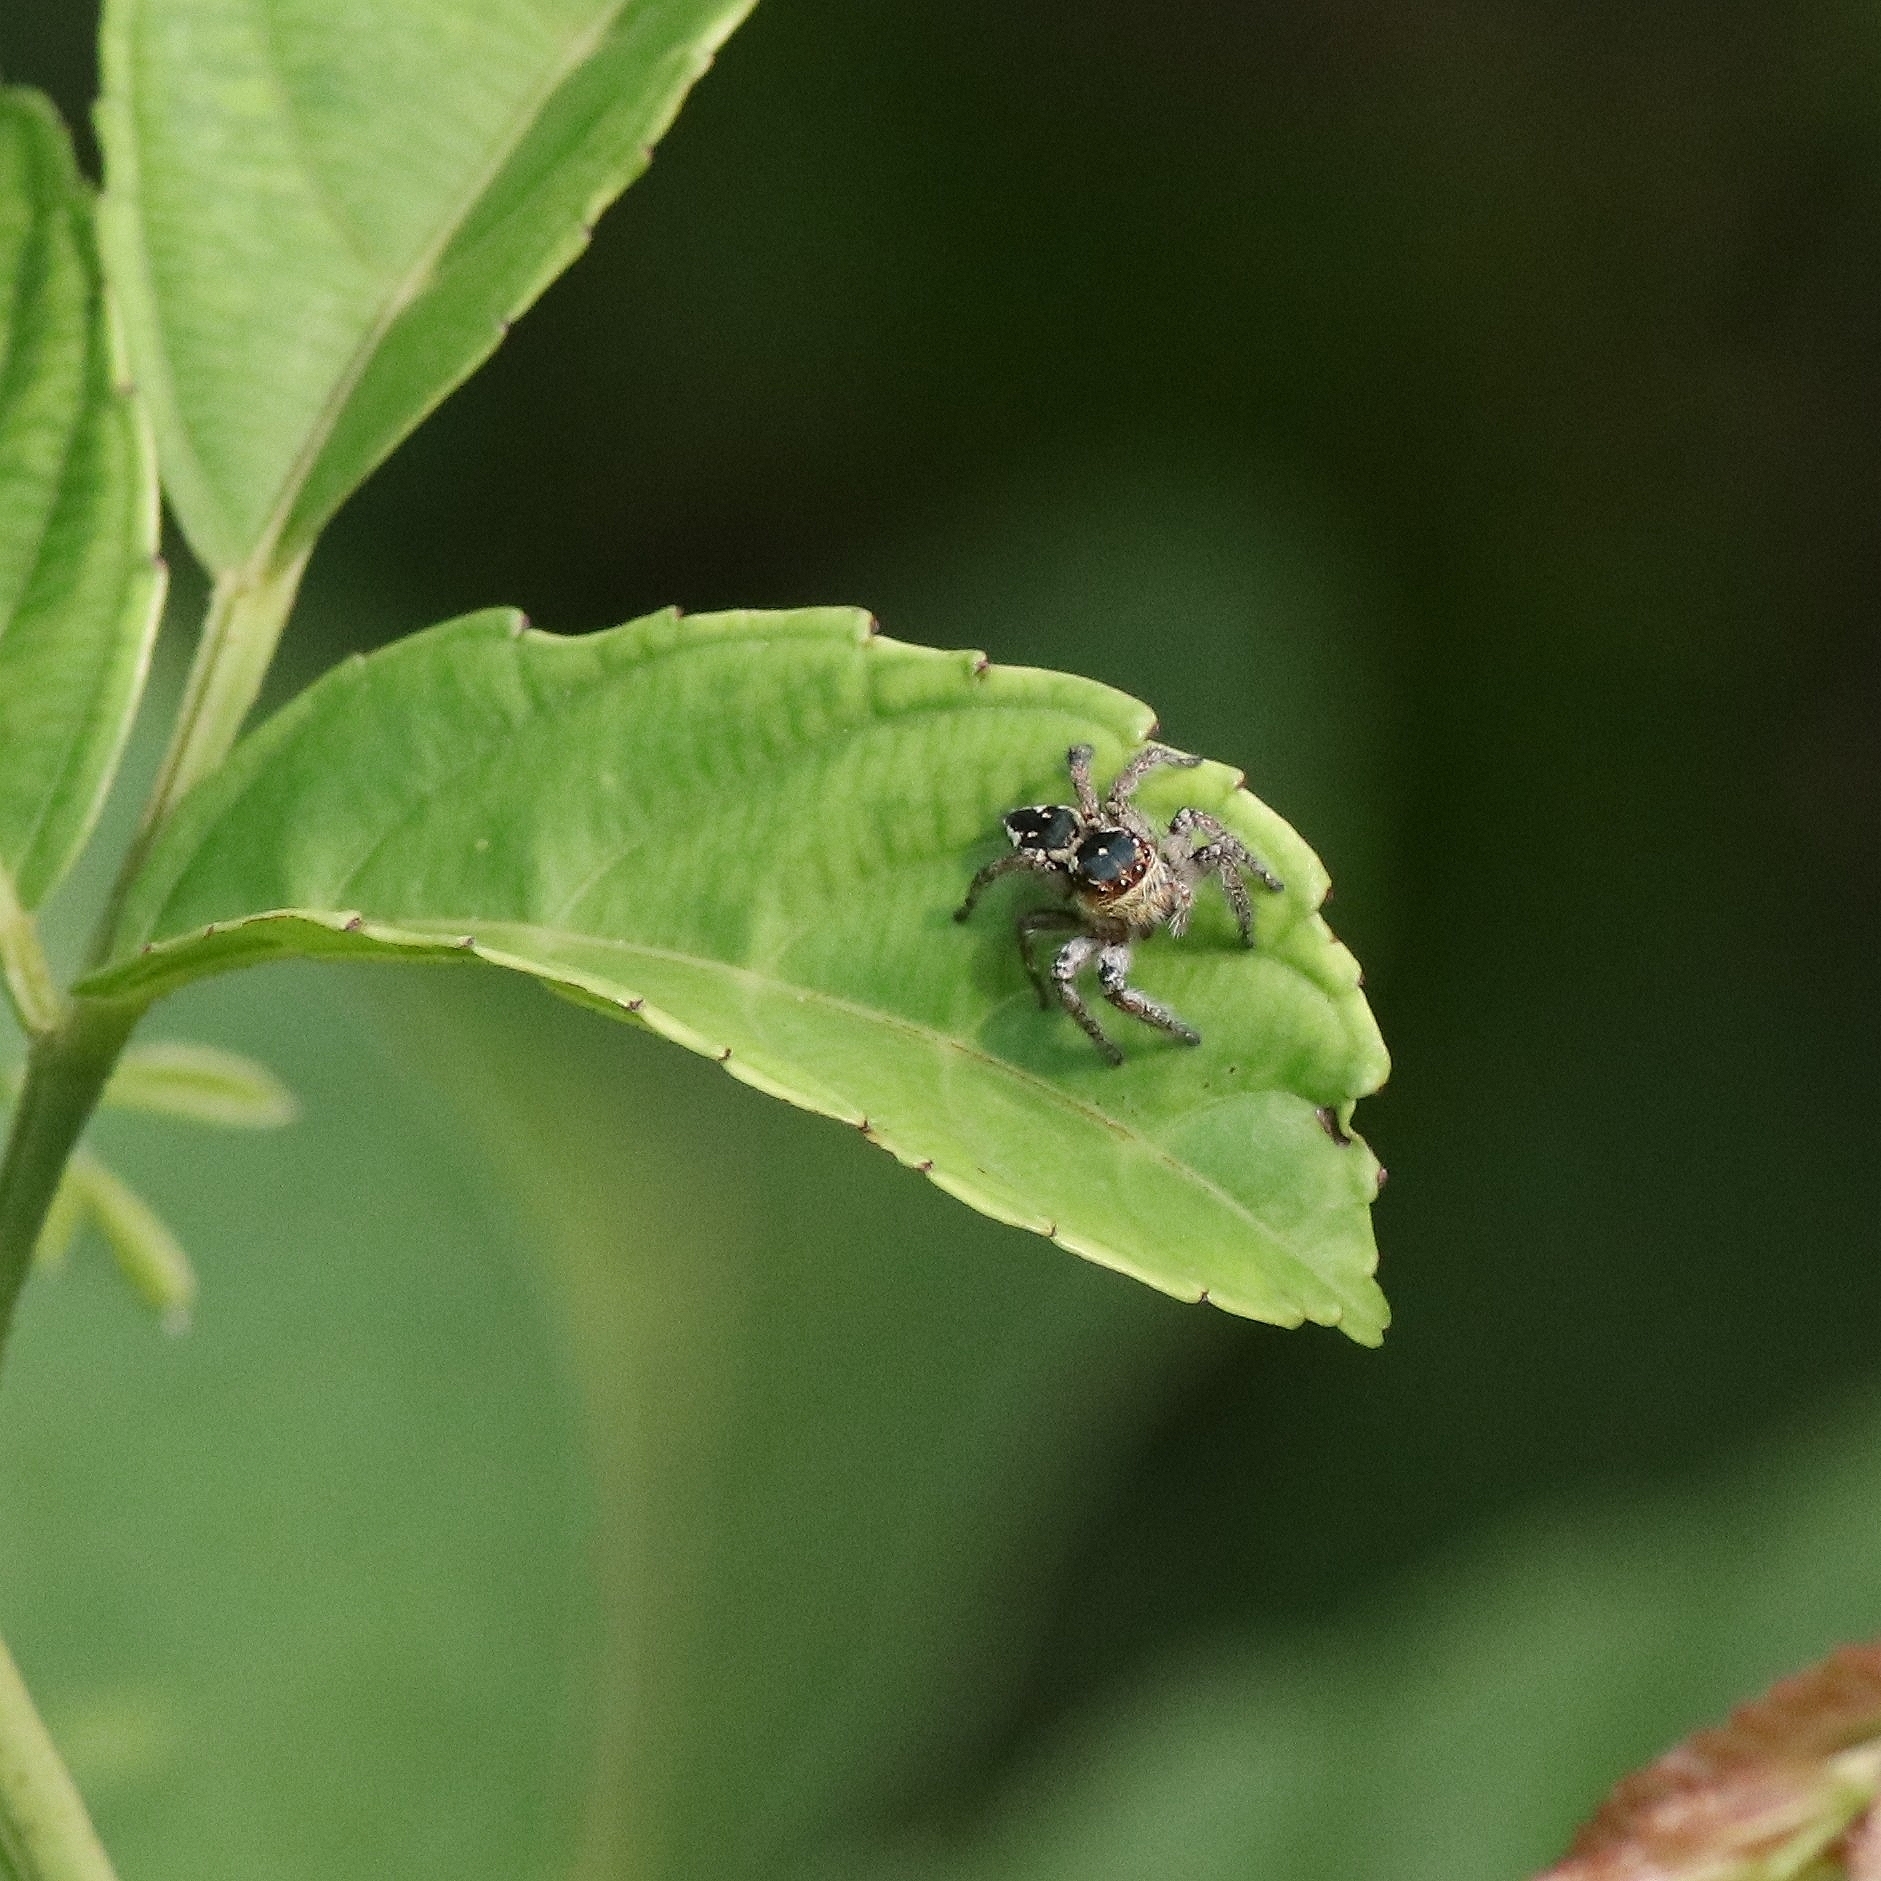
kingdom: Animalia
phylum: Arthropoda
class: Arachnida
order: Araneae
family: Salticidae
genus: Carrhotus
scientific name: Carrhotus viduus
